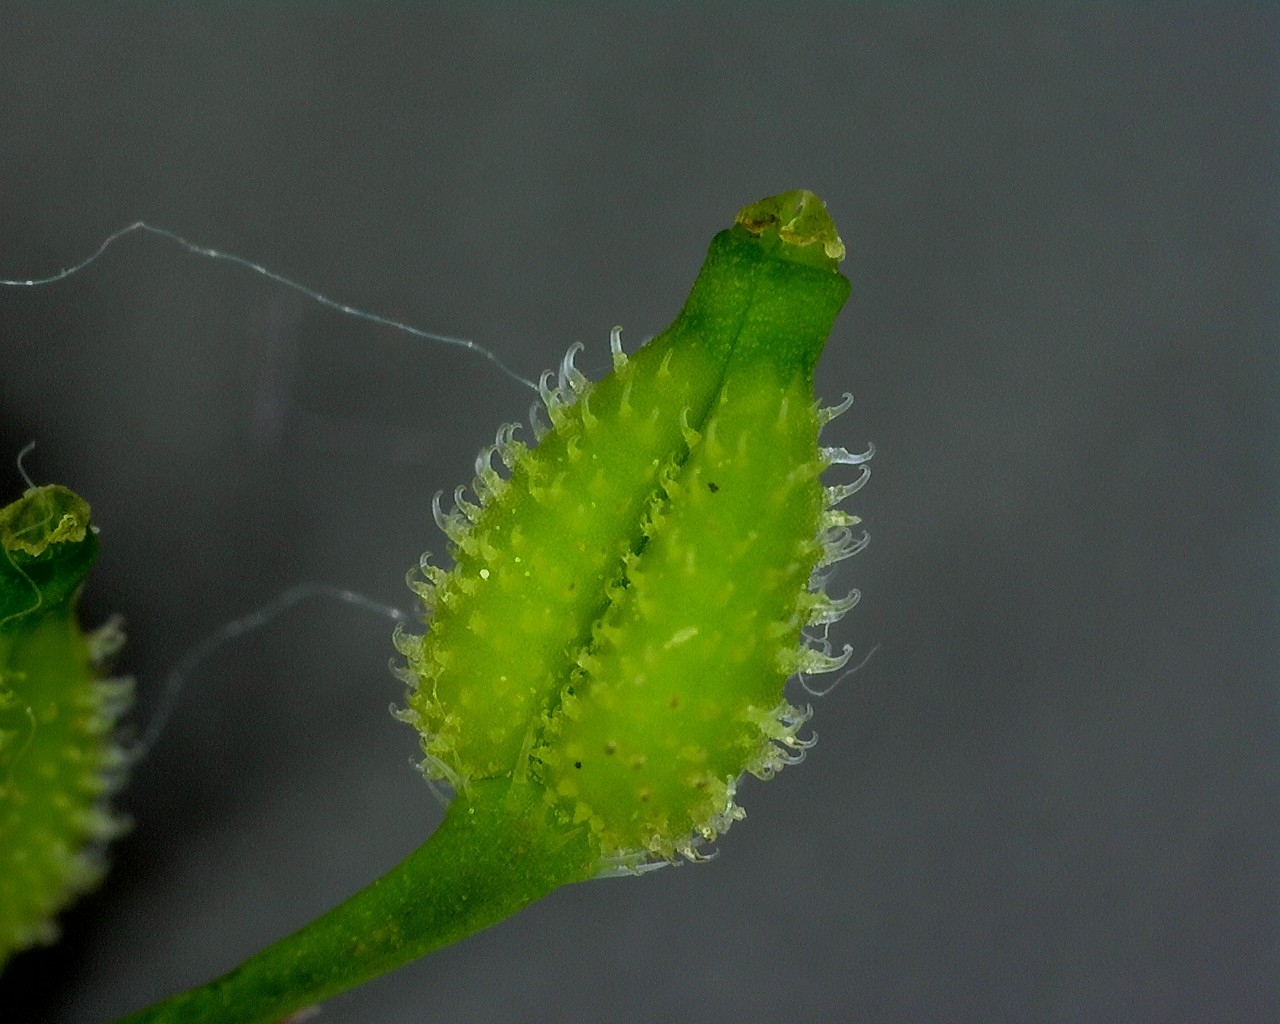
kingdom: Plantae
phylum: Tracheophyta
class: Magnoliopsida
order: Apiales
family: Apiaceae
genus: Anthriscus
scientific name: Anthriscus caucalis
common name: Bur chervil
